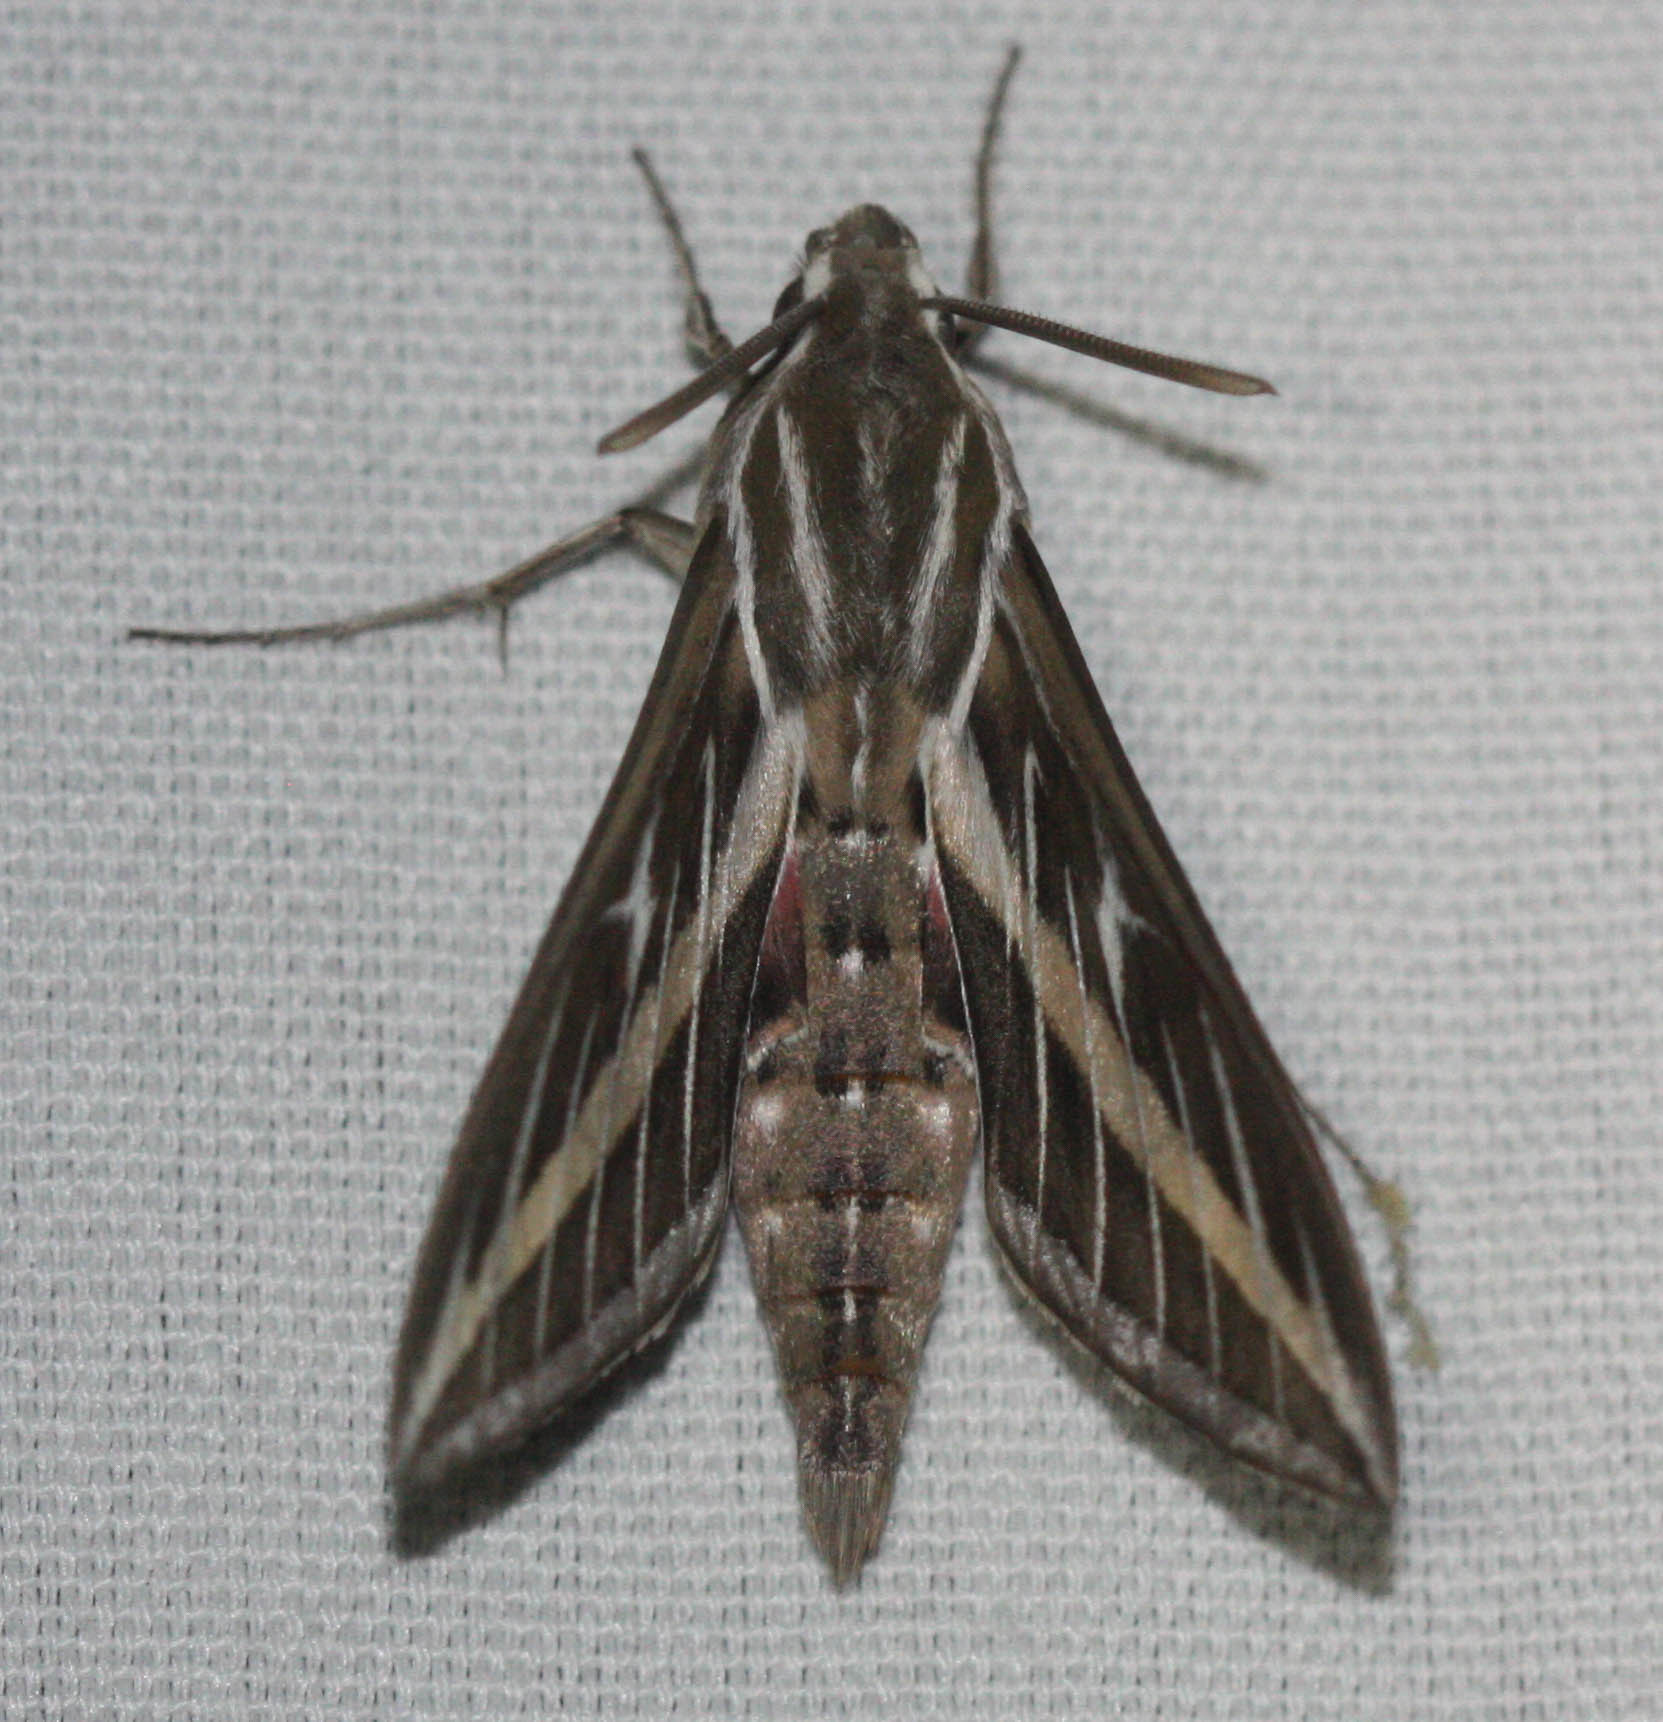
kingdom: Animalia
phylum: Arthropoda
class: Insecta
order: Lepidoptera
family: Sphingidae
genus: Hyles
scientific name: Hyles lineata
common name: White-lined sphinx
